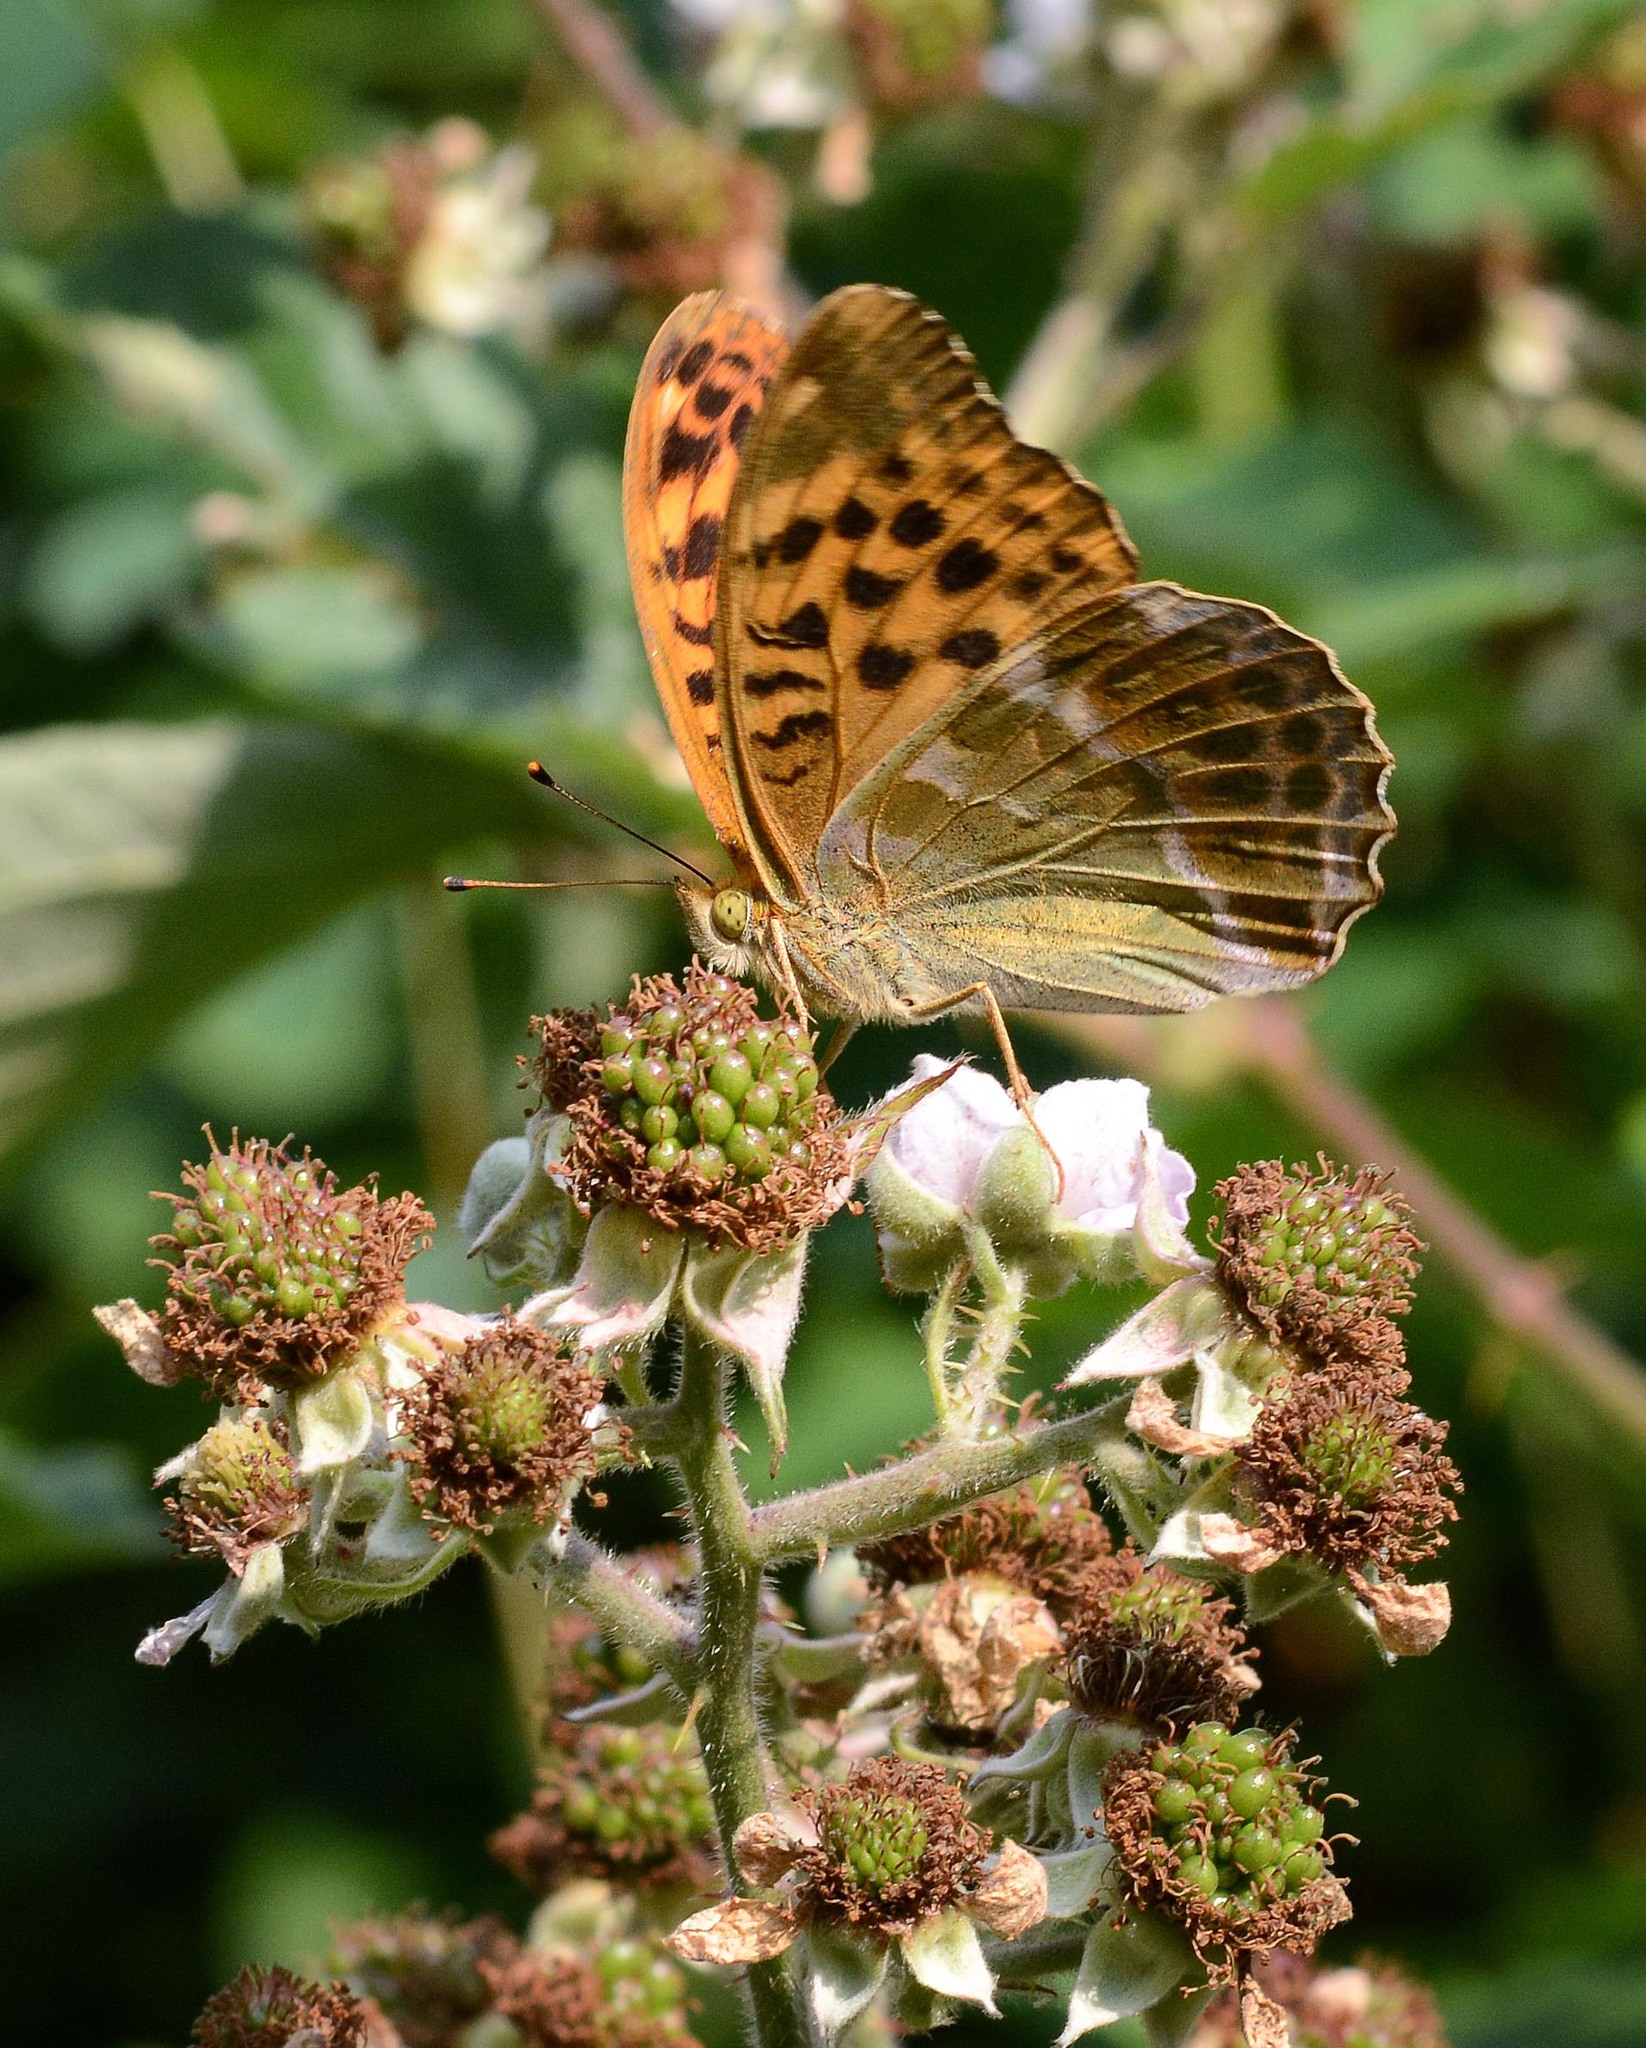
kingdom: Animalia
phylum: Arthropoda
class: Insecta
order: Lepidoptera
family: Nymphalidae
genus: Argynnis
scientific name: Argynnis paphia
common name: Silver-washed fritillary
